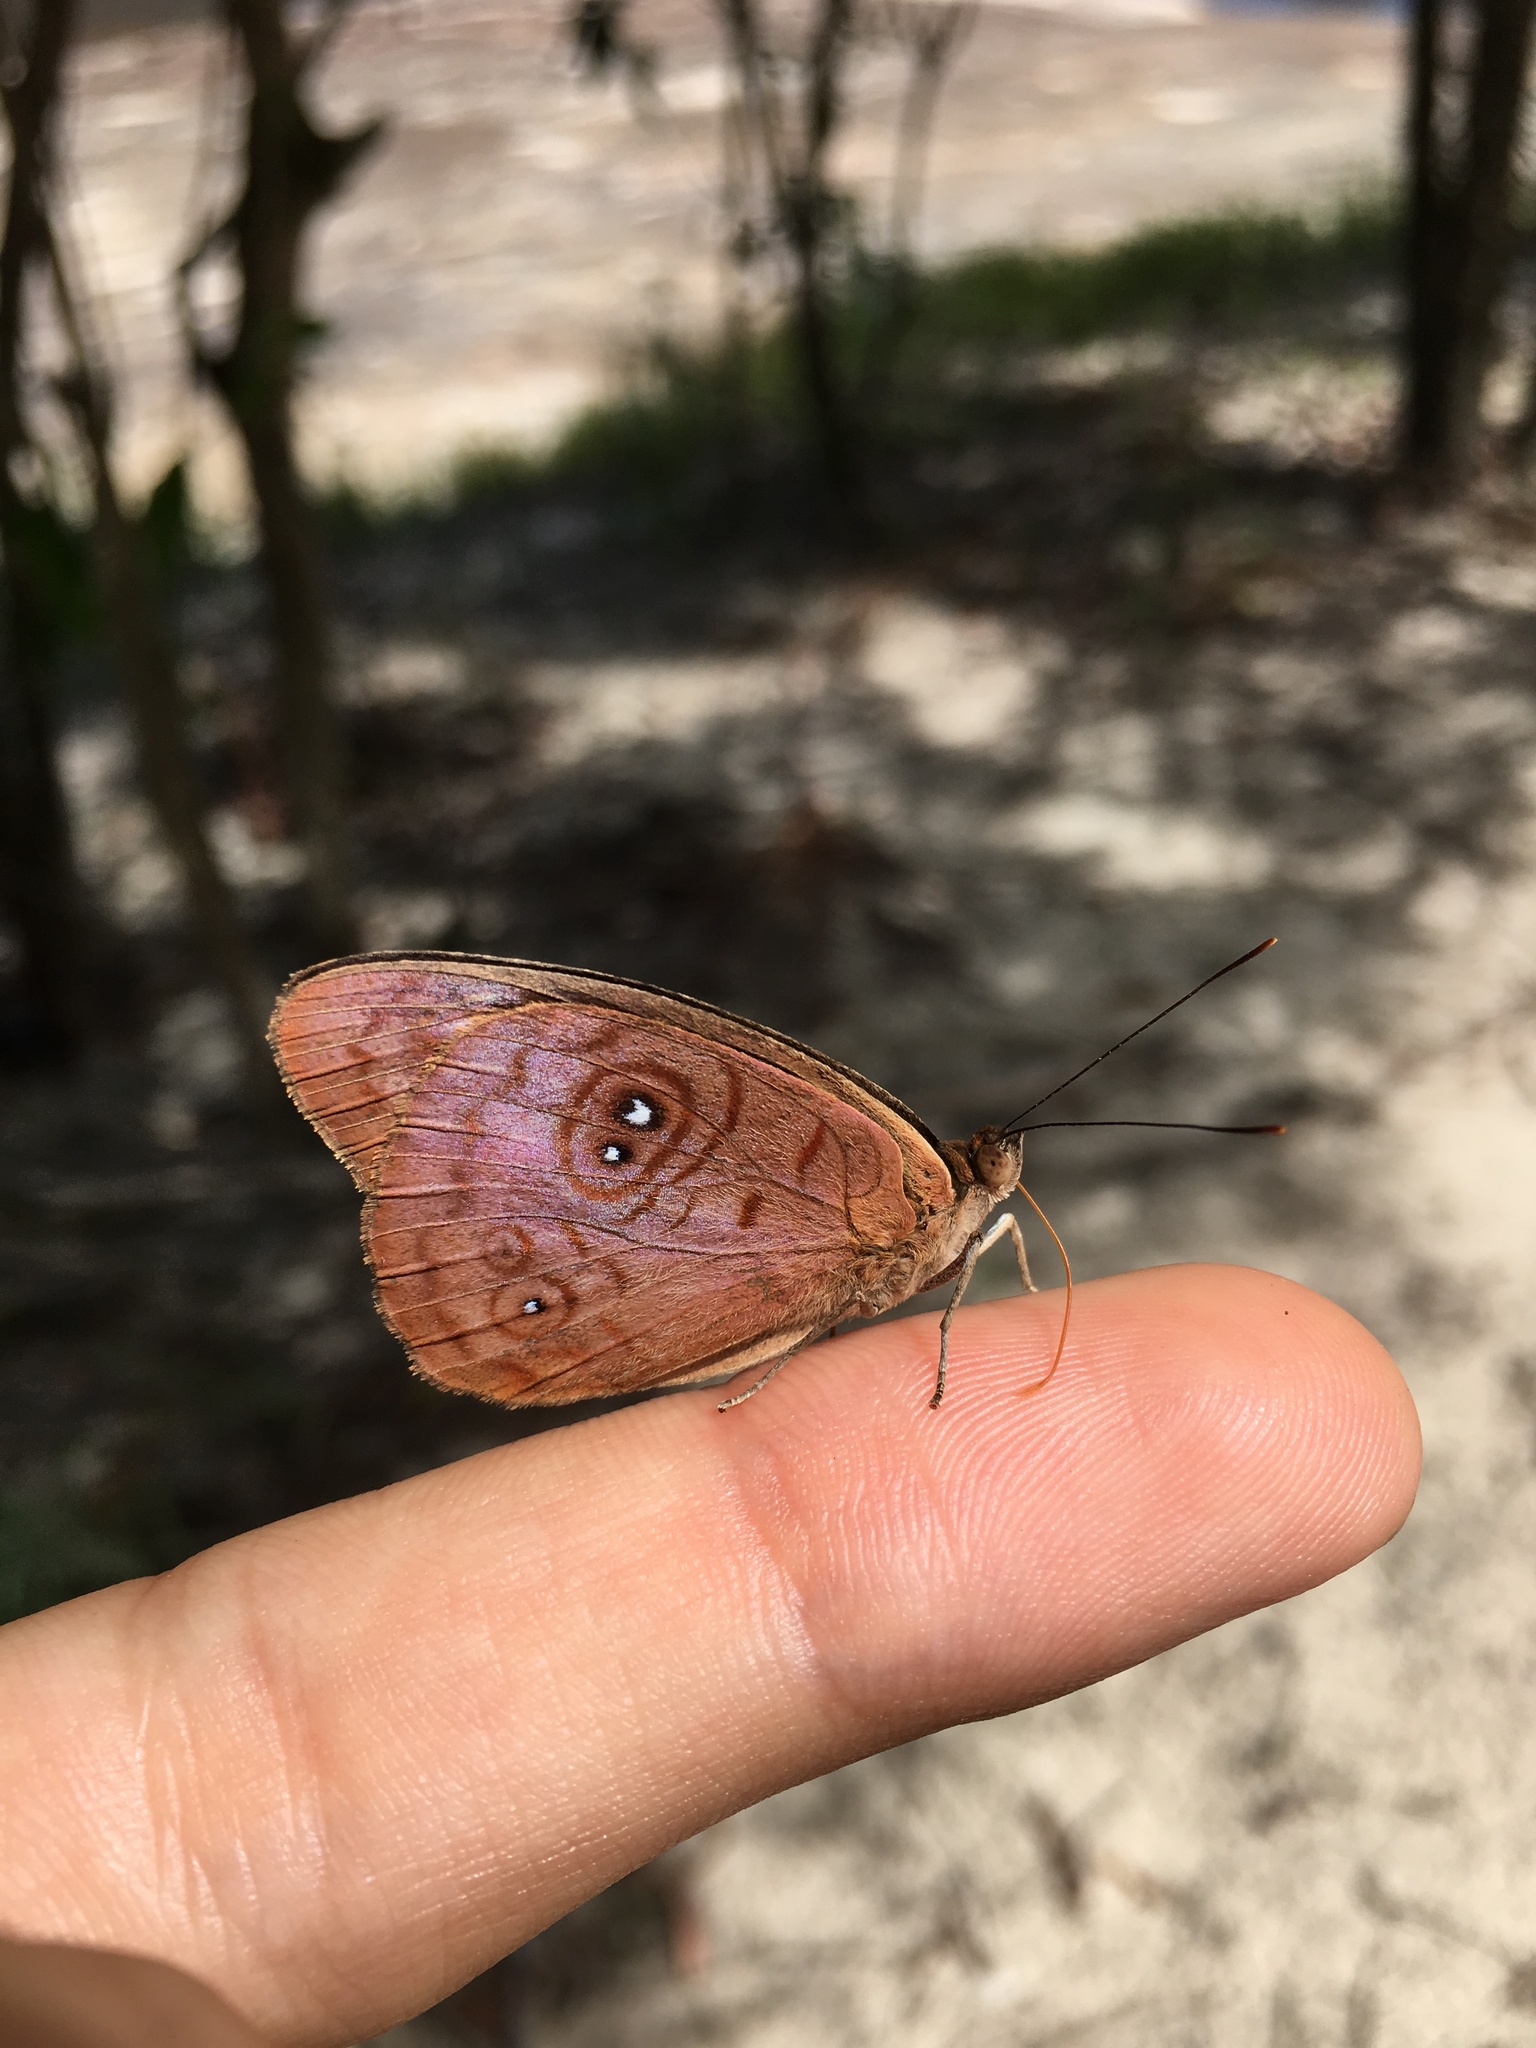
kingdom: Animalia
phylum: Arthropoda
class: Insecta
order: Lepidoptera
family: Nymphalidae
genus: Eunica
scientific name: Eunica viola
